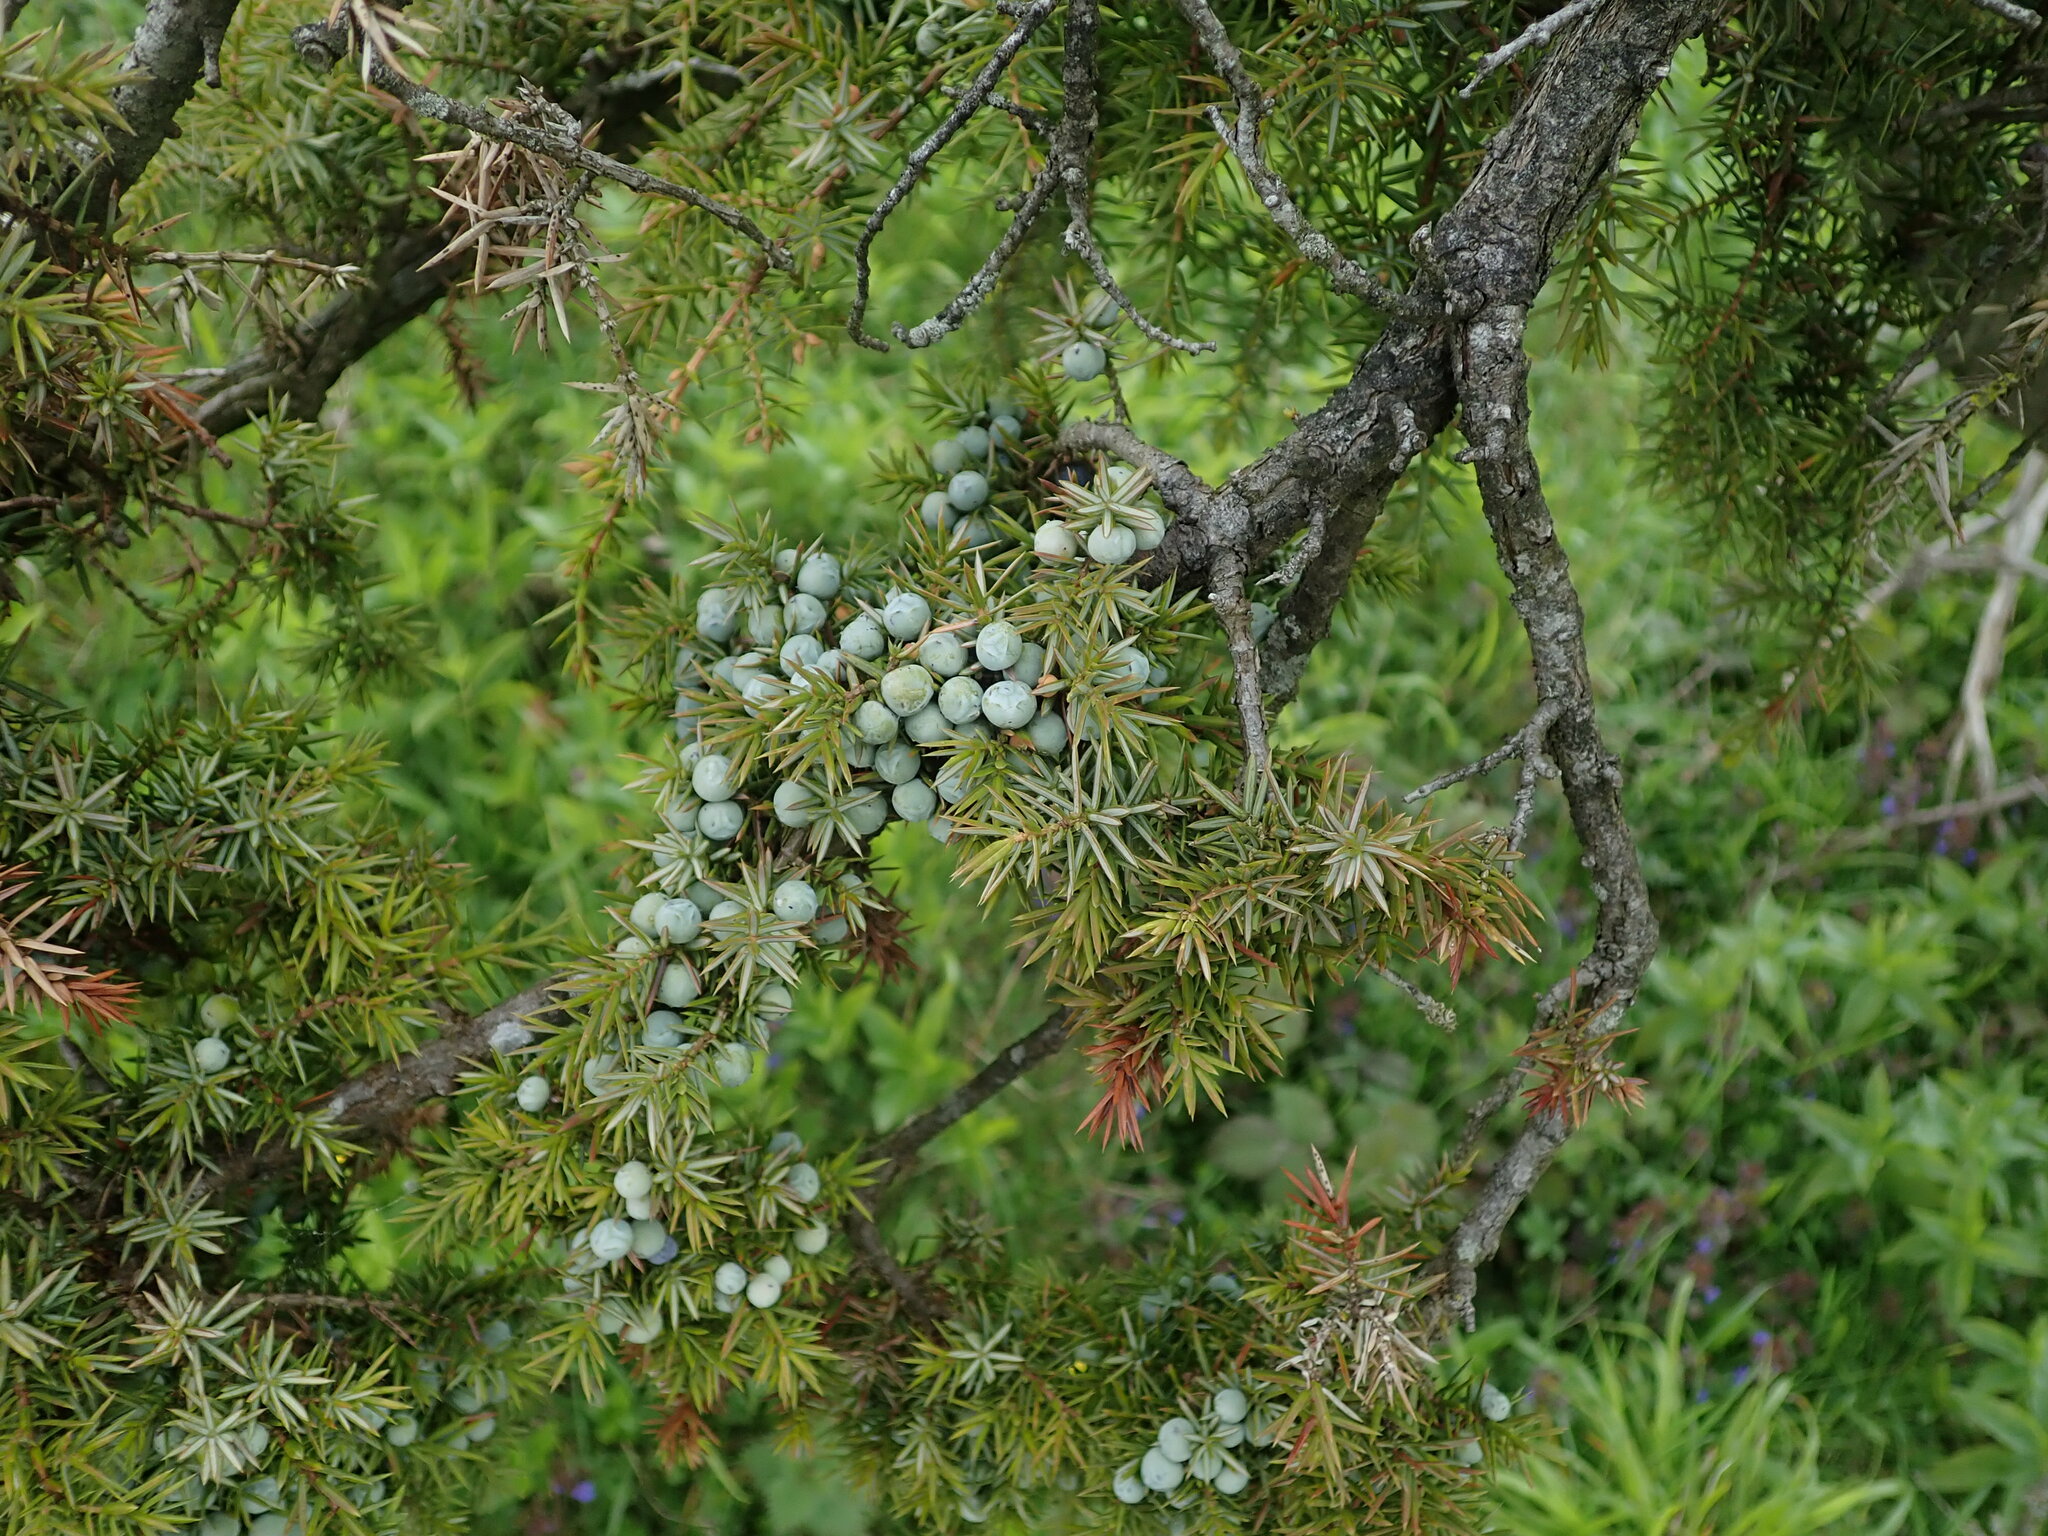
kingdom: Plantae
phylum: Tracheophyta
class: Pinopsida
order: Pinales
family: Cupressaceae
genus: Juniperus
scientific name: Juniperus communis
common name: Common juniper
